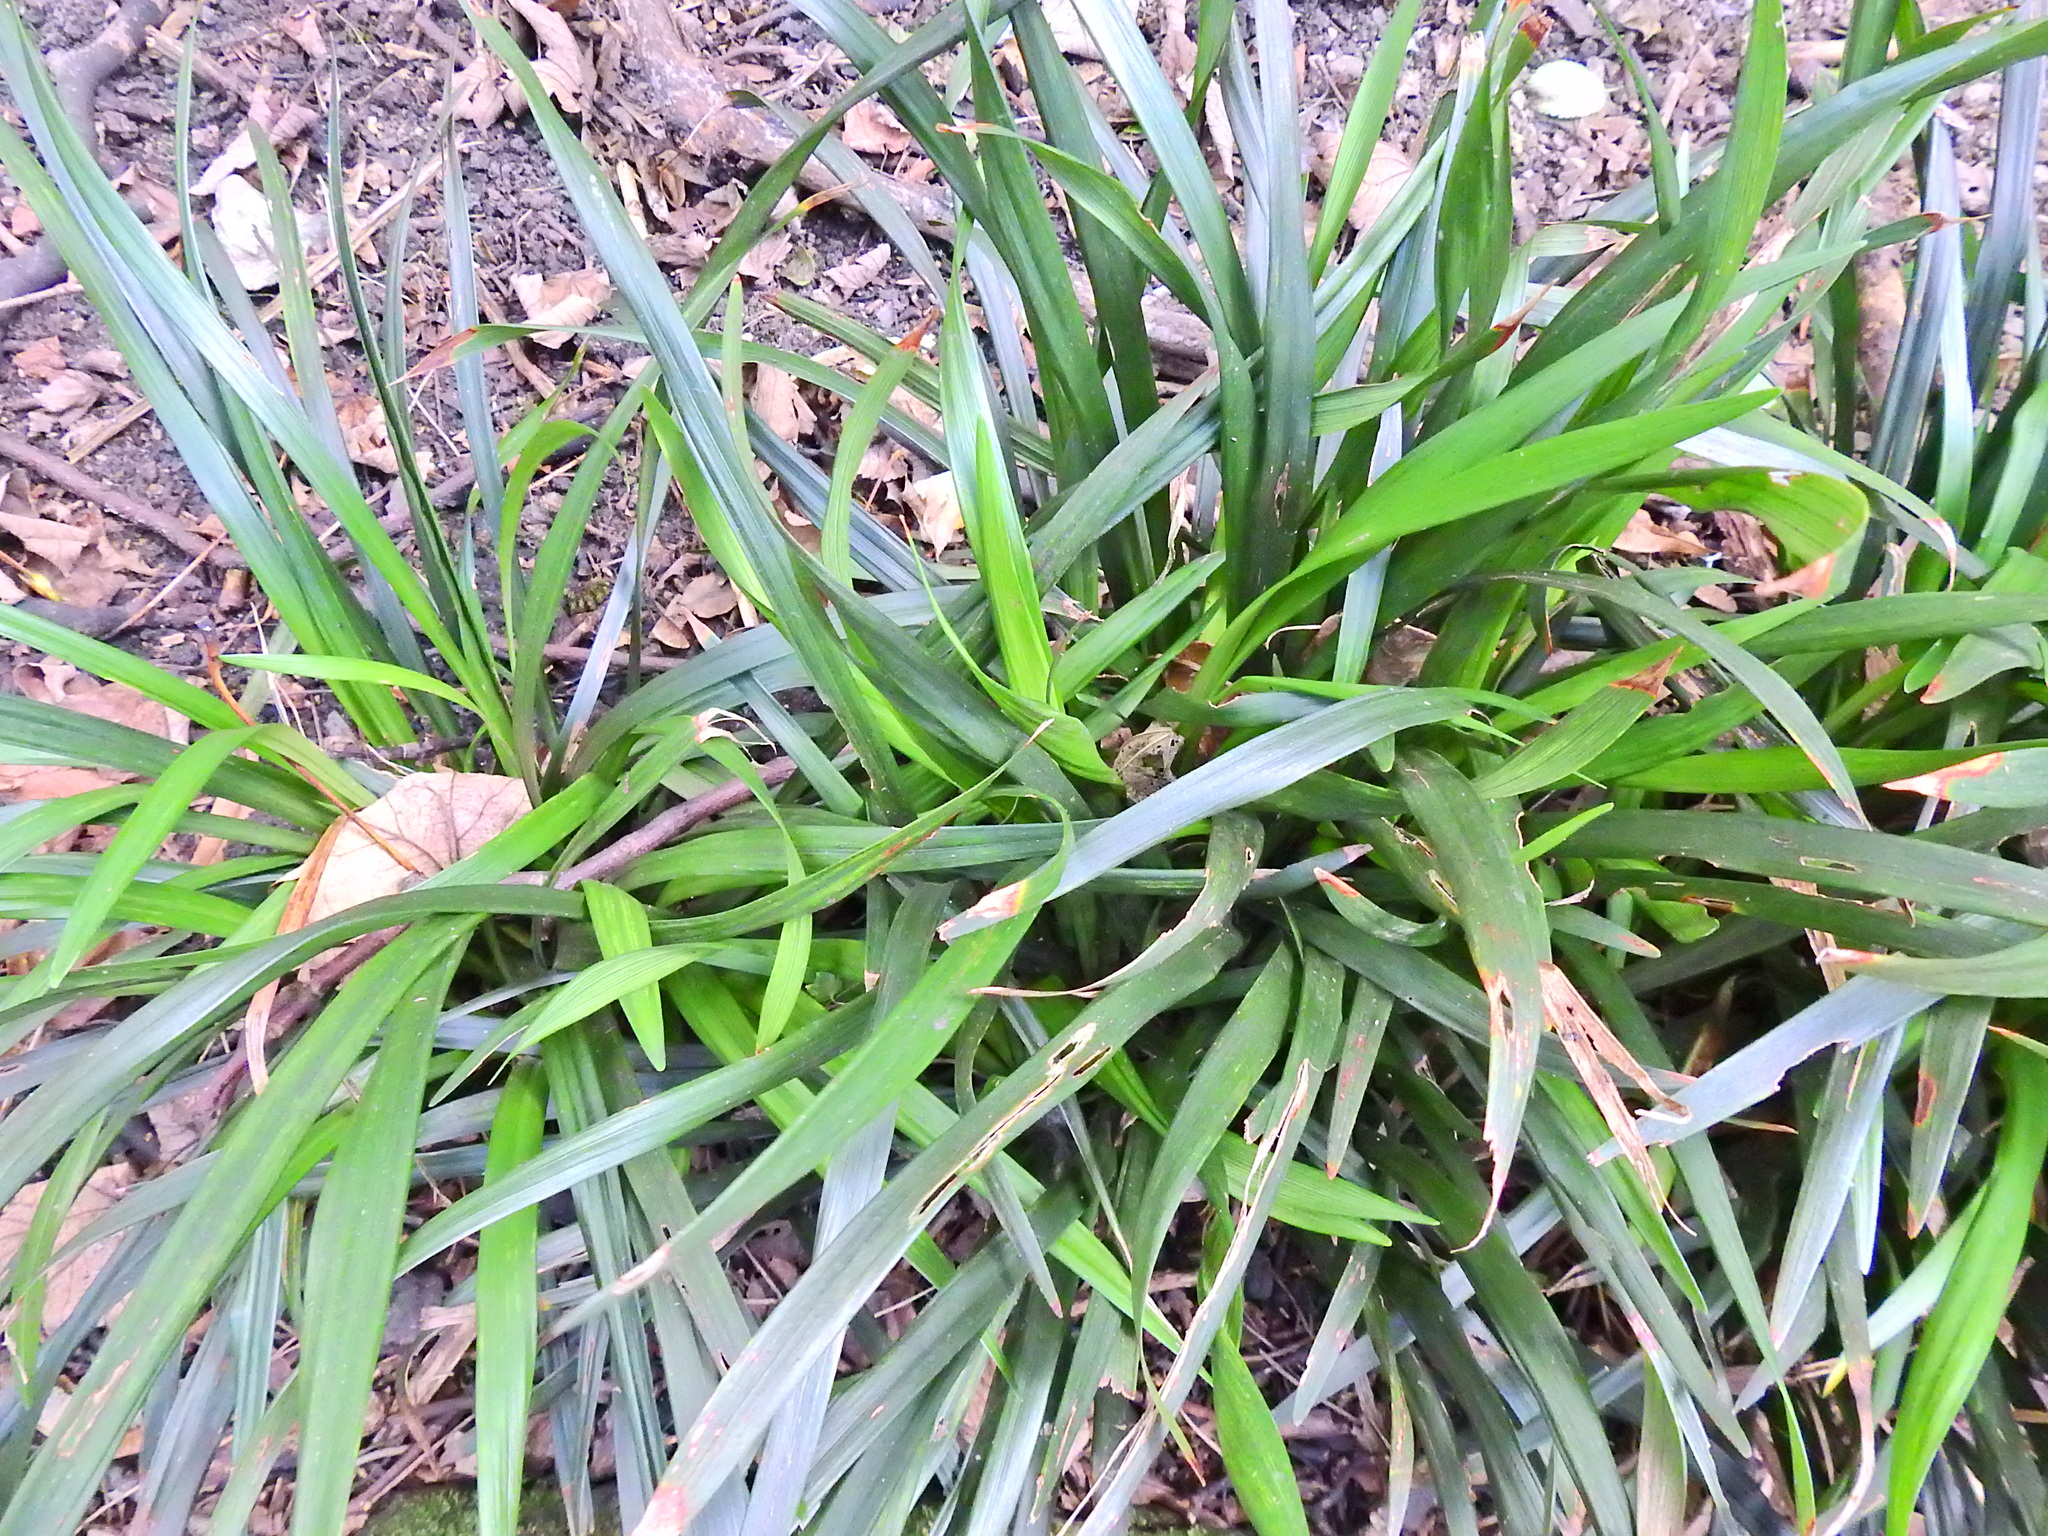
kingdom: Plantae
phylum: Tracheophyta
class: Liliopsida
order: Asparagales
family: Iridaceae
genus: Iris
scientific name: Iris foetidissima
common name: Stinking iris
